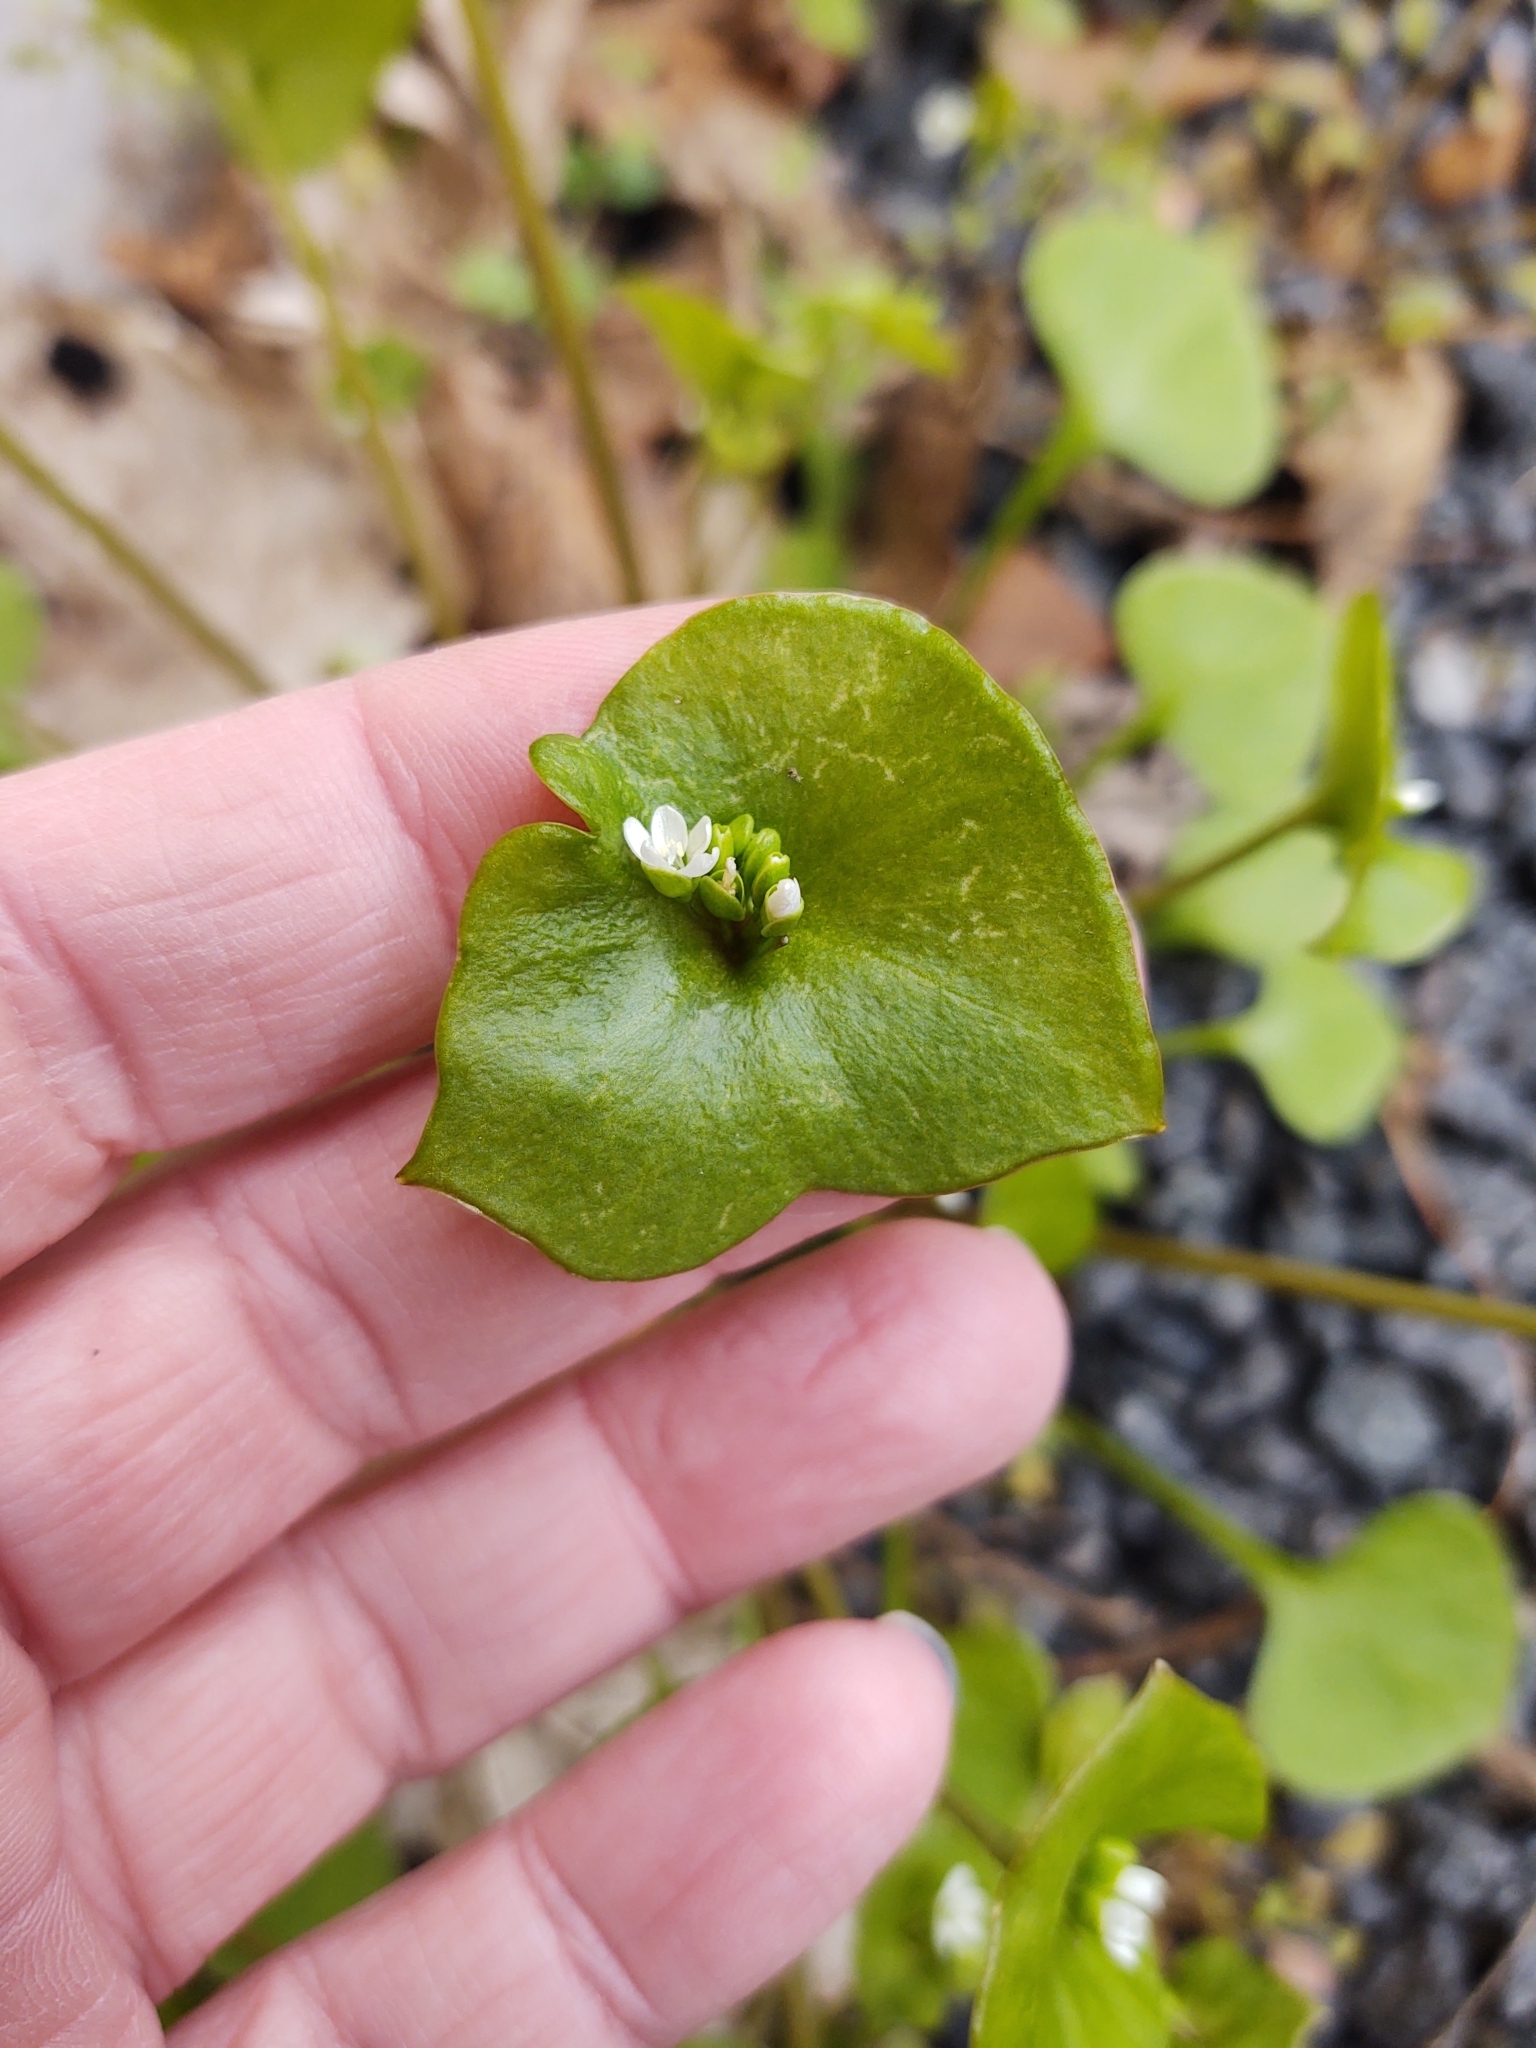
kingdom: Plantae
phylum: Tracheophyta
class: Magnoliopsida
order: Caryophyllales
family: Montiaceae
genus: Claytonia
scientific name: Claytonia perfoliata
